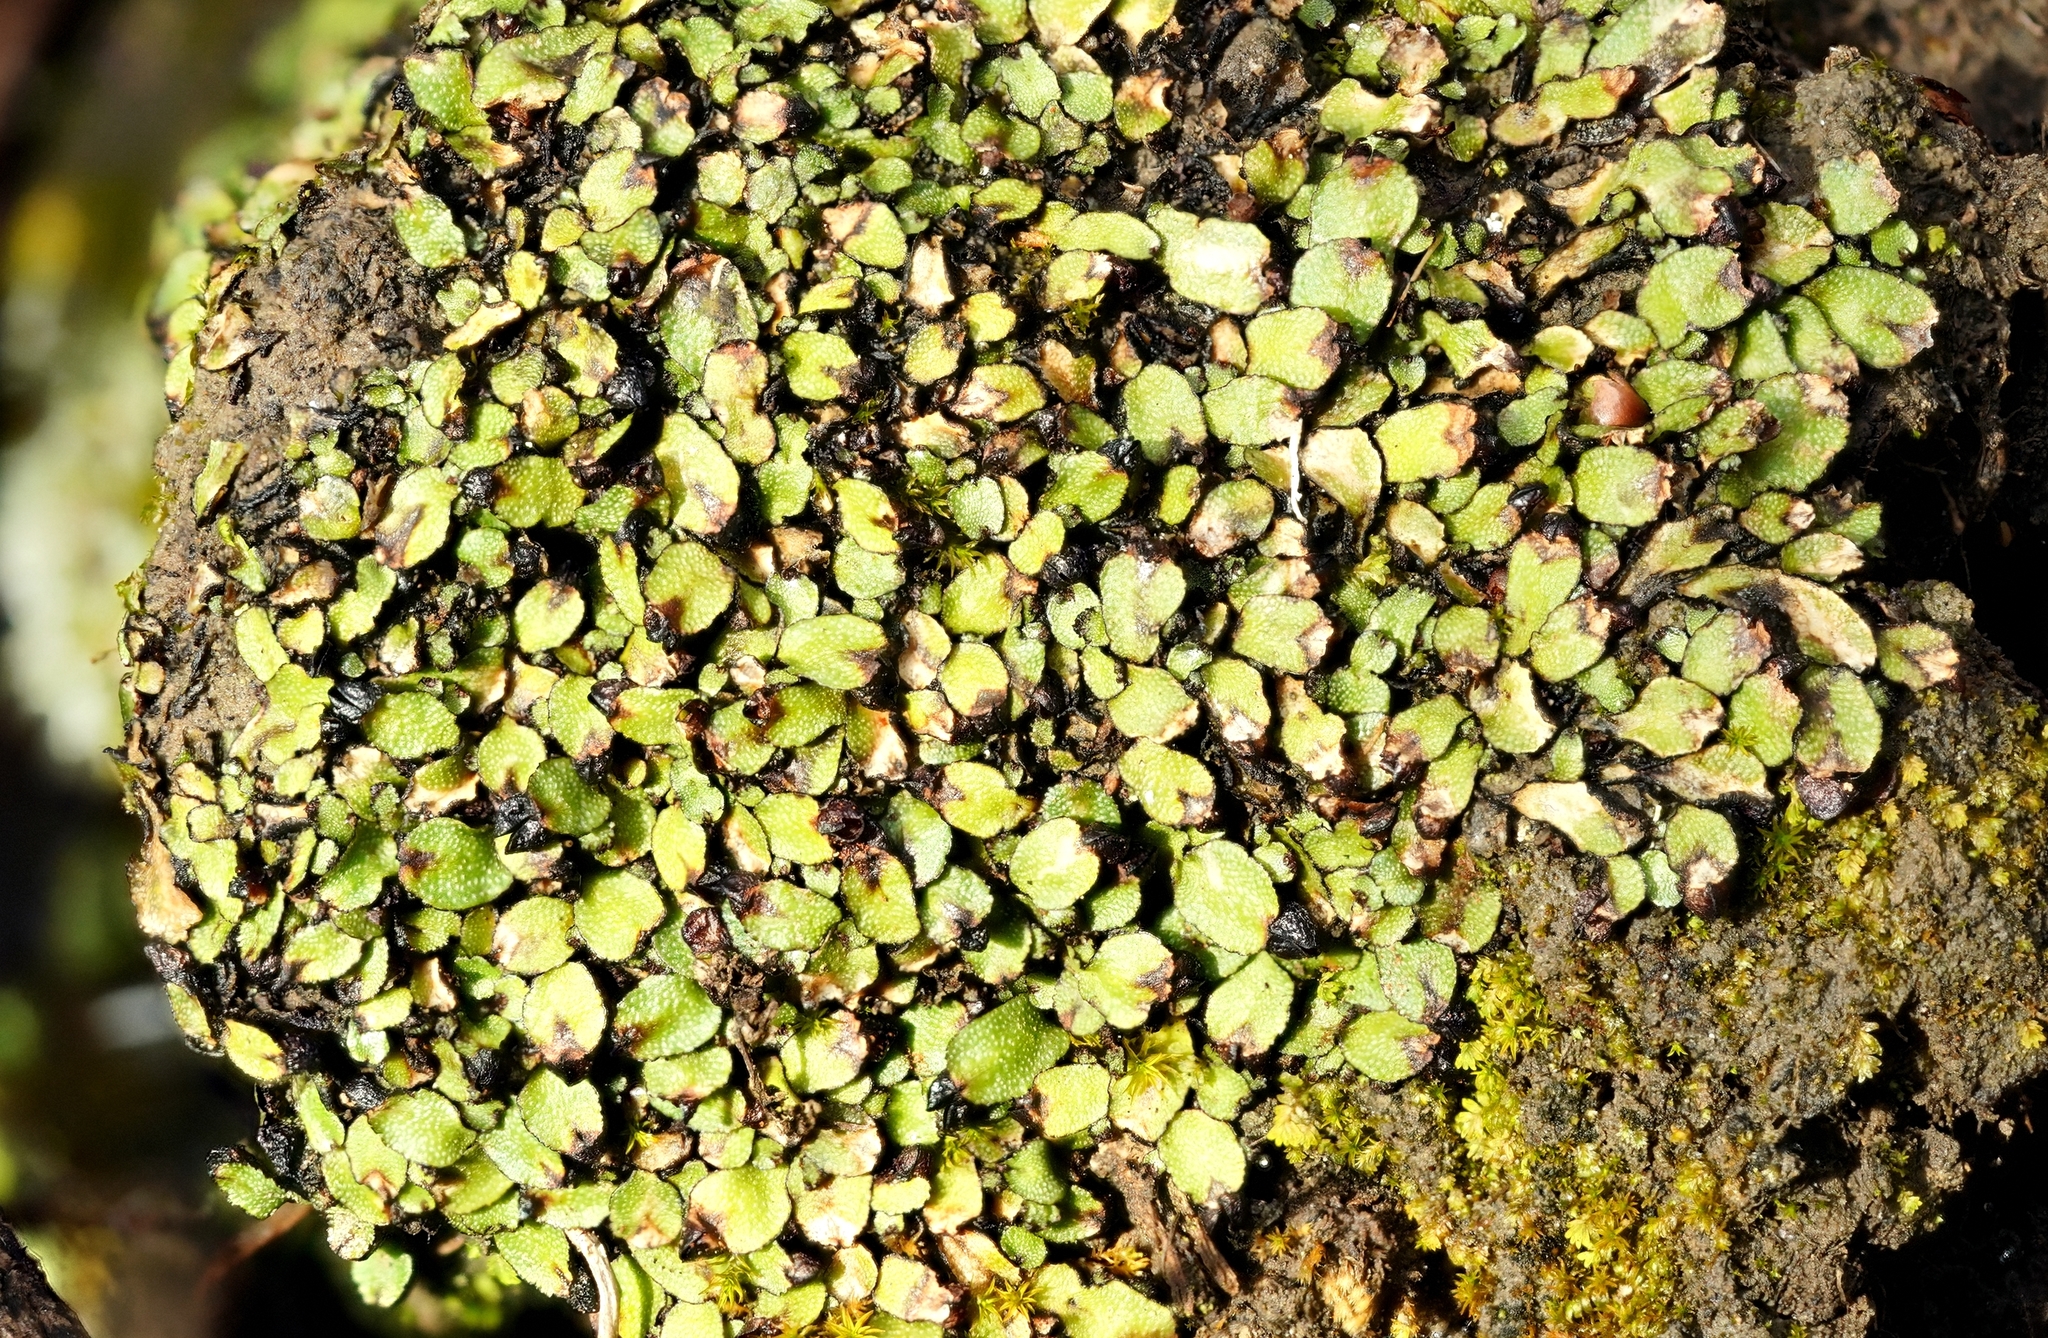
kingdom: Plantae
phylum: Marchantiophyta
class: Marchantiopsida
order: Marchantiales
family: Targioniaceae
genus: Targionia
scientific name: Targionia hypophylla
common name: Orobus-seed liverwort
